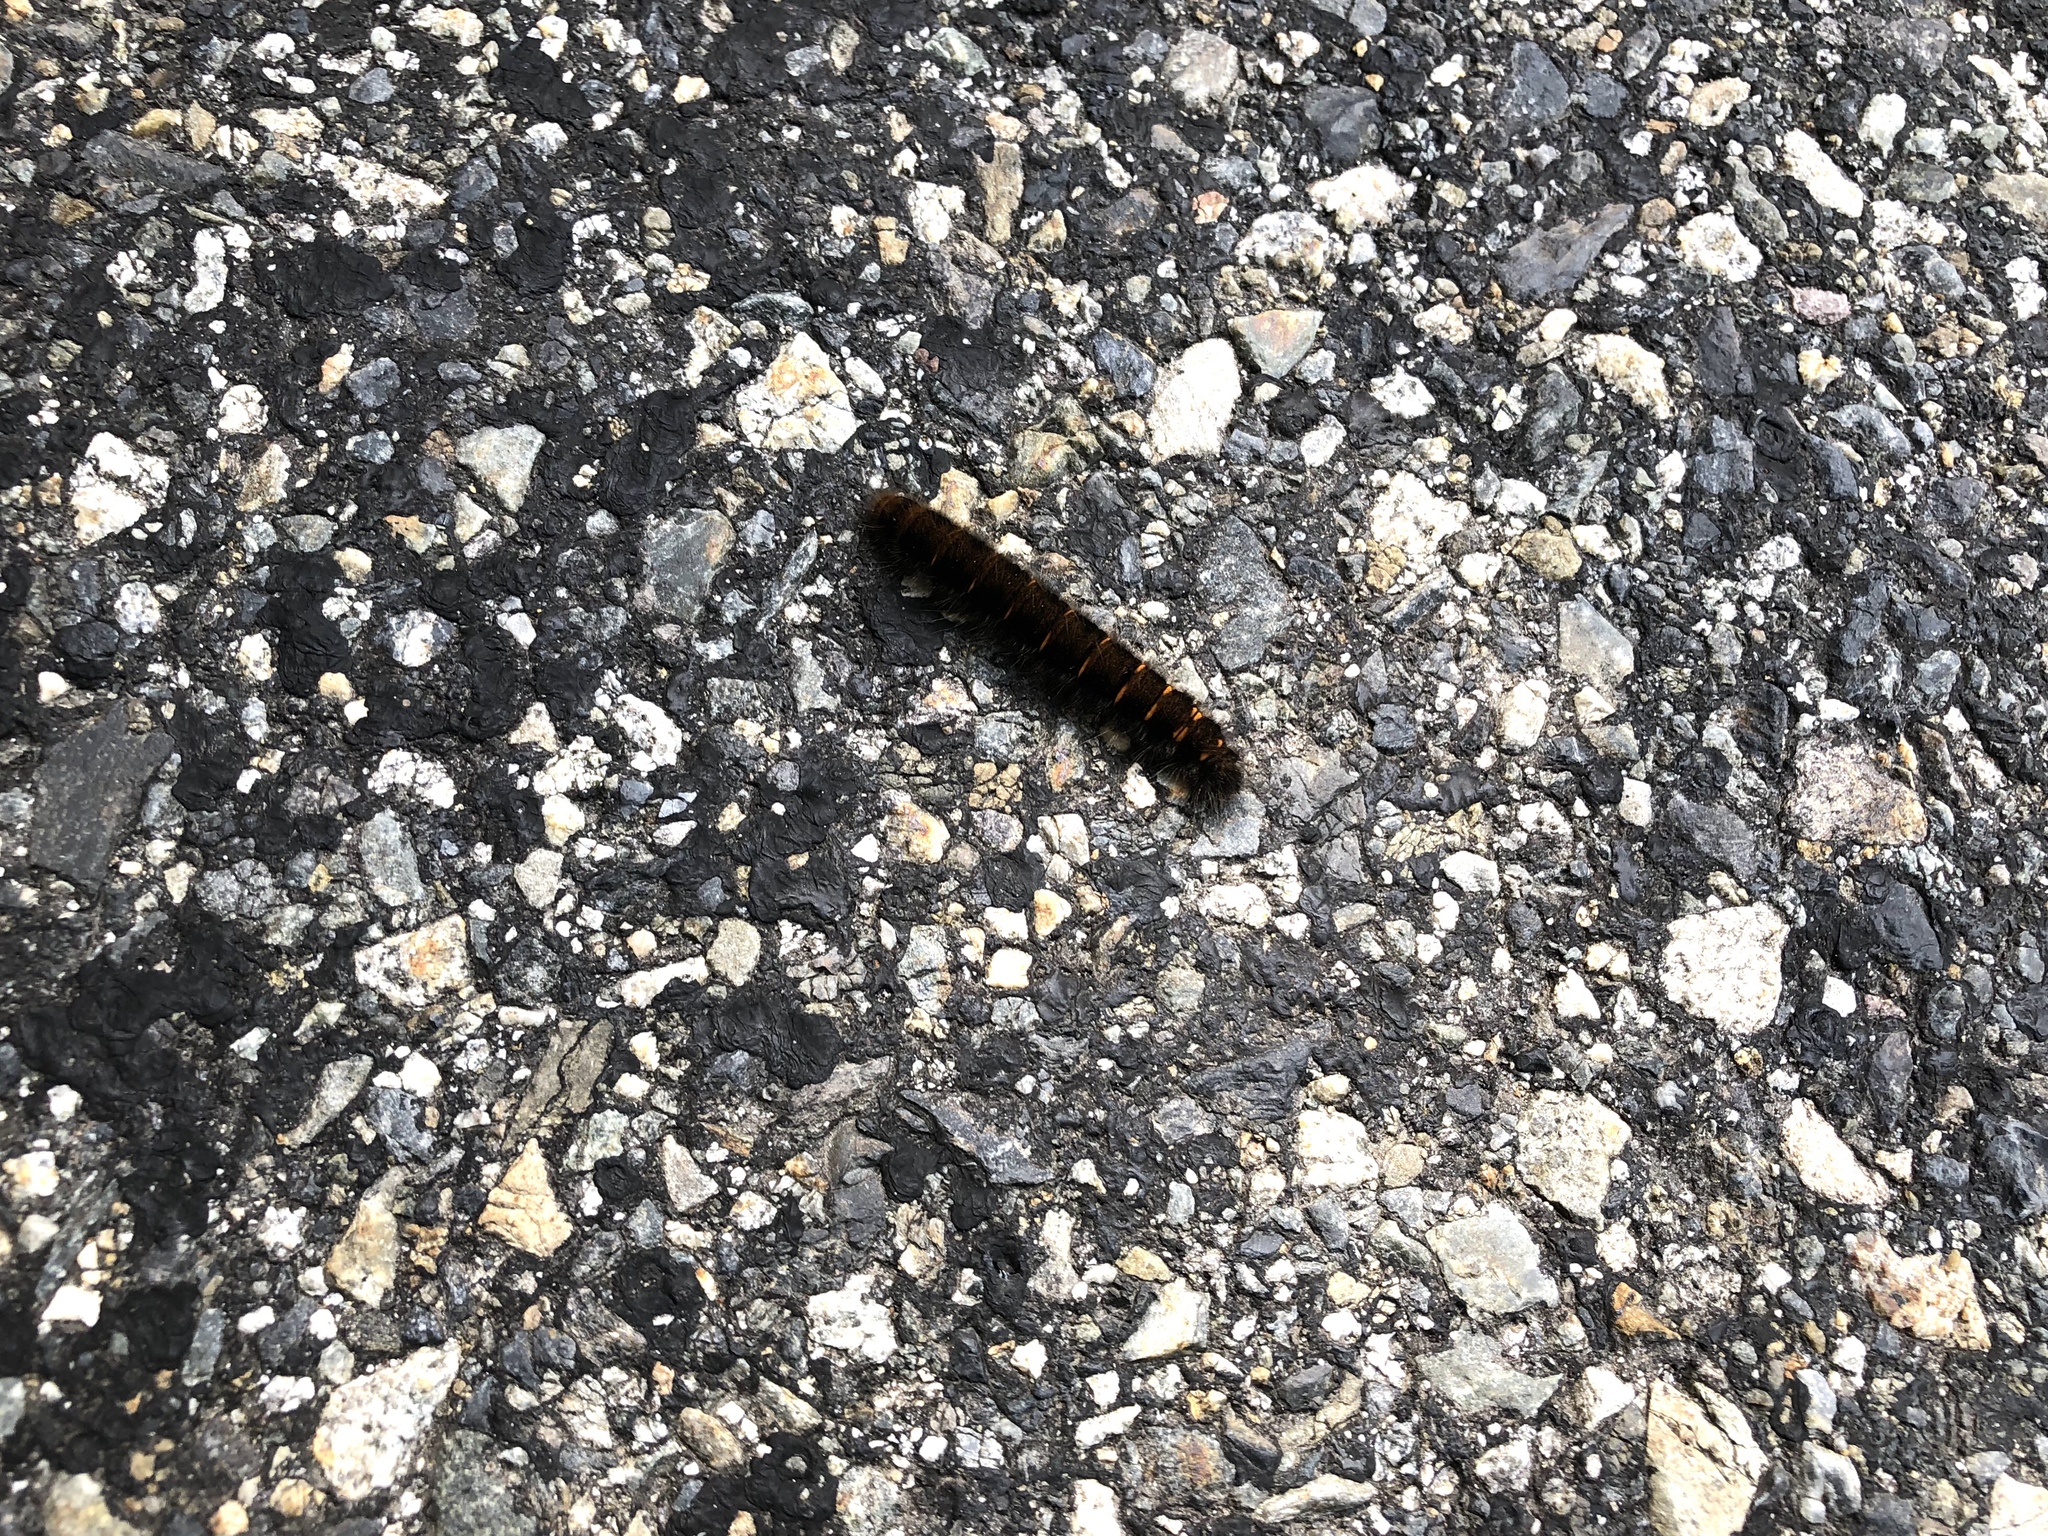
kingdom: Animalia
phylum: Arthropoda
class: Insecta
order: Lepidoptera
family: Lasiocampidae
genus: Macrothylacia
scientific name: Macrothylacia rubi
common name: Fox moth
